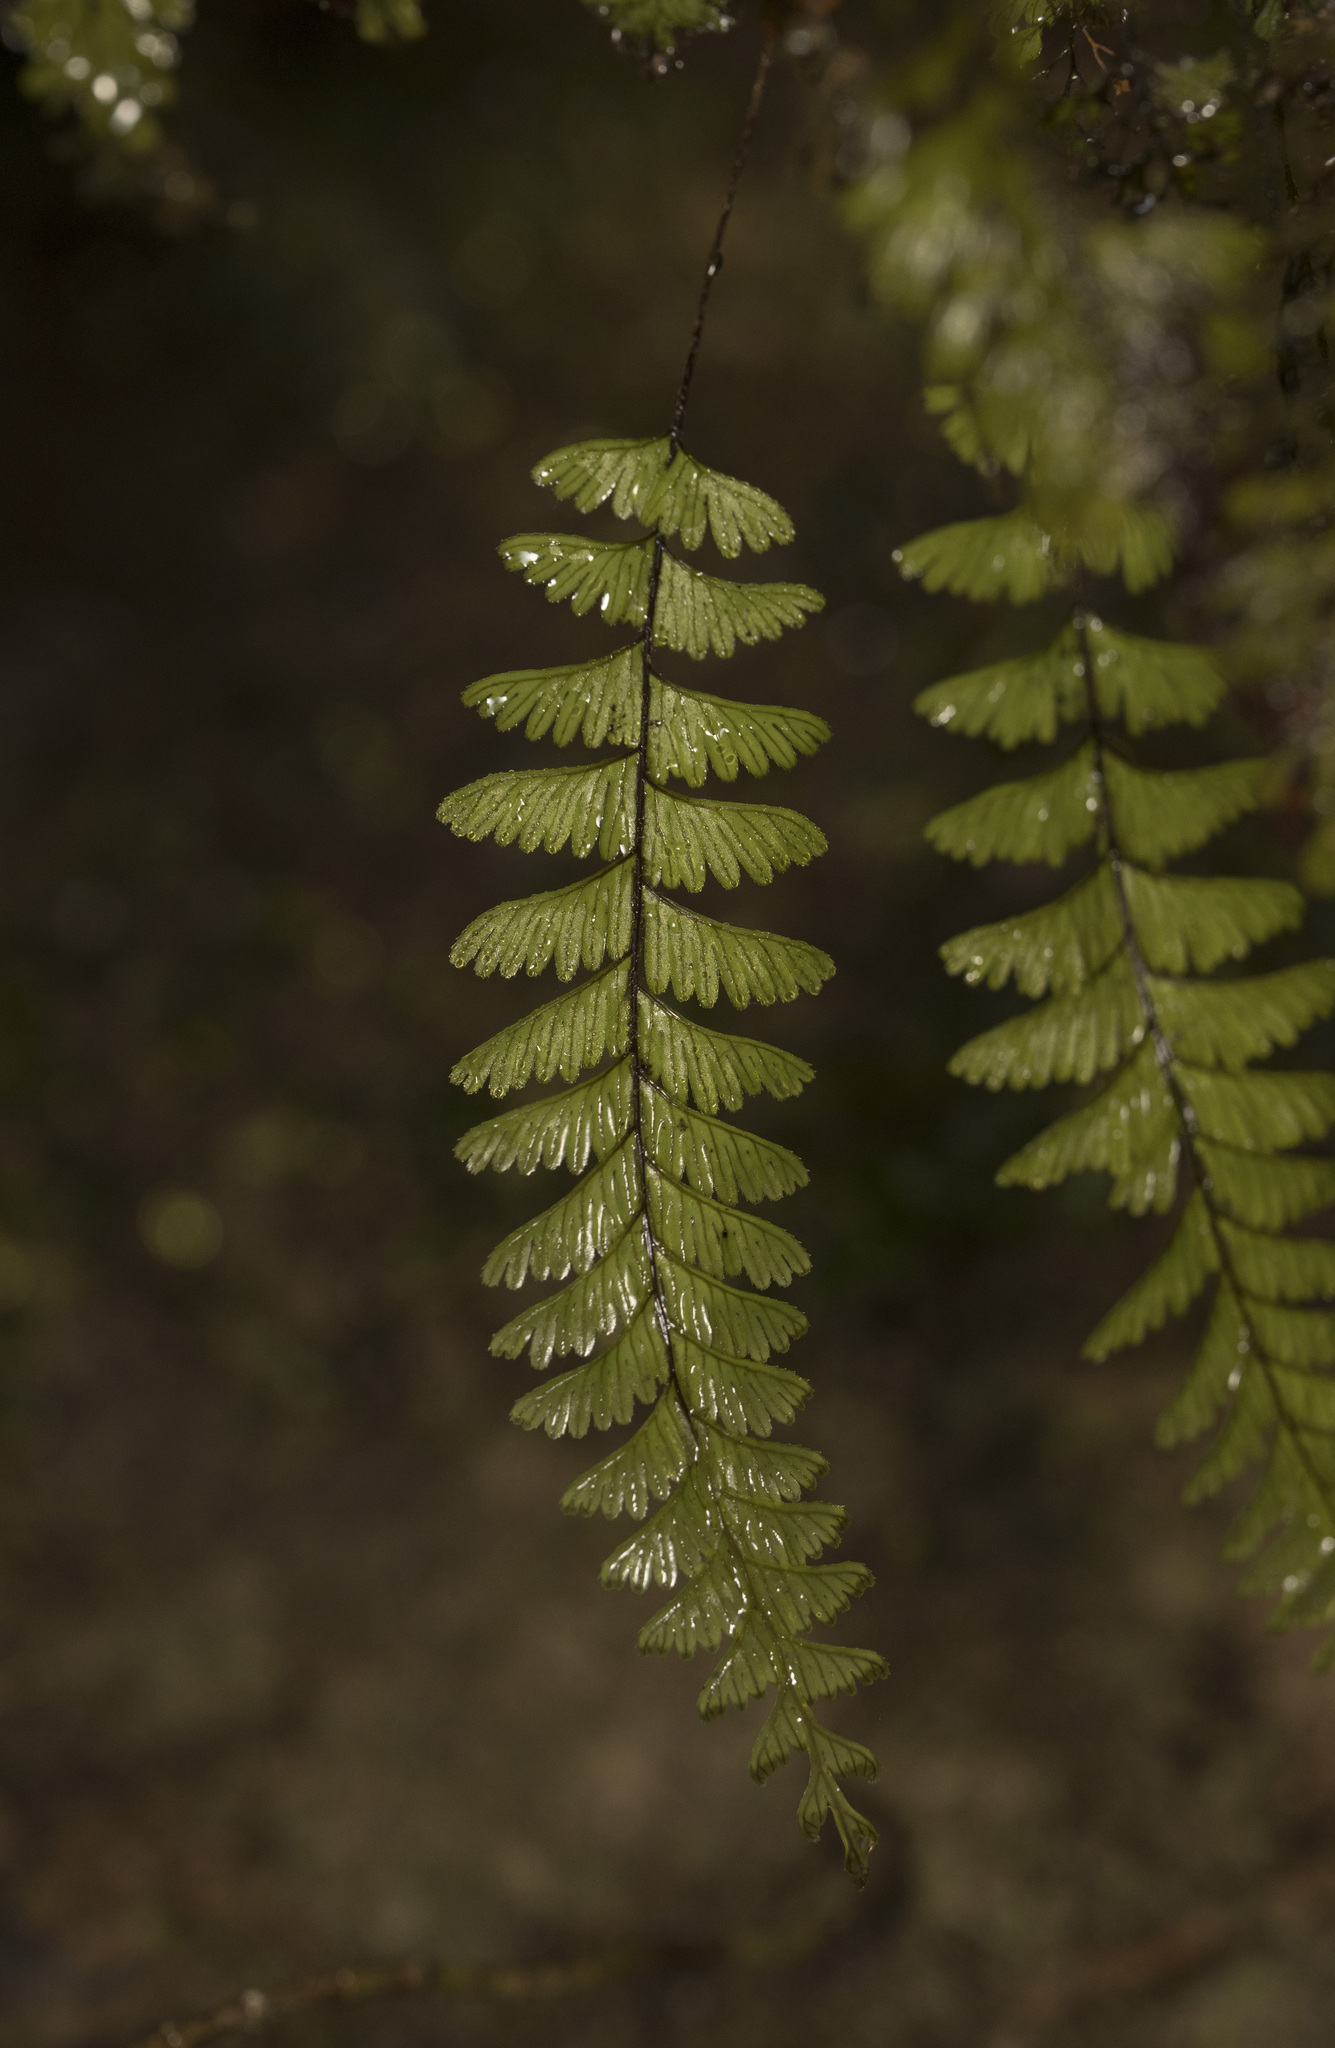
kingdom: Plantae
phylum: Tracheophyta
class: Polypodiopsida
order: Hymenophyllales
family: Hymenophyllaceae
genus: Hymenophyllum
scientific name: Hymenophyllum pectinatum
